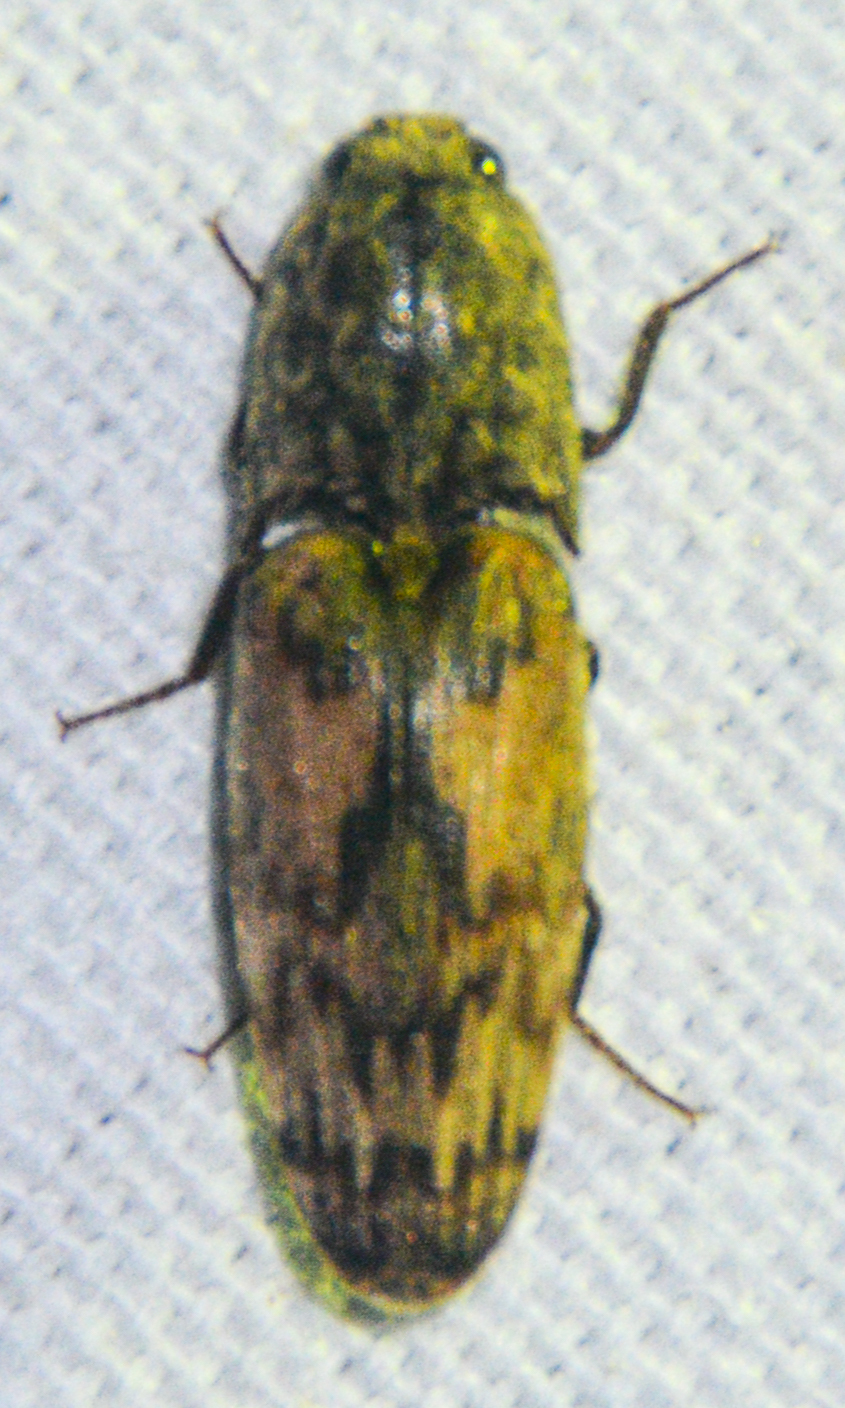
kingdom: Animalia
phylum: Arthropoda
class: Insecta
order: Coleoptera
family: Elateridae
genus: Pherhimius
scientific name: Pherhimius fascicularis
